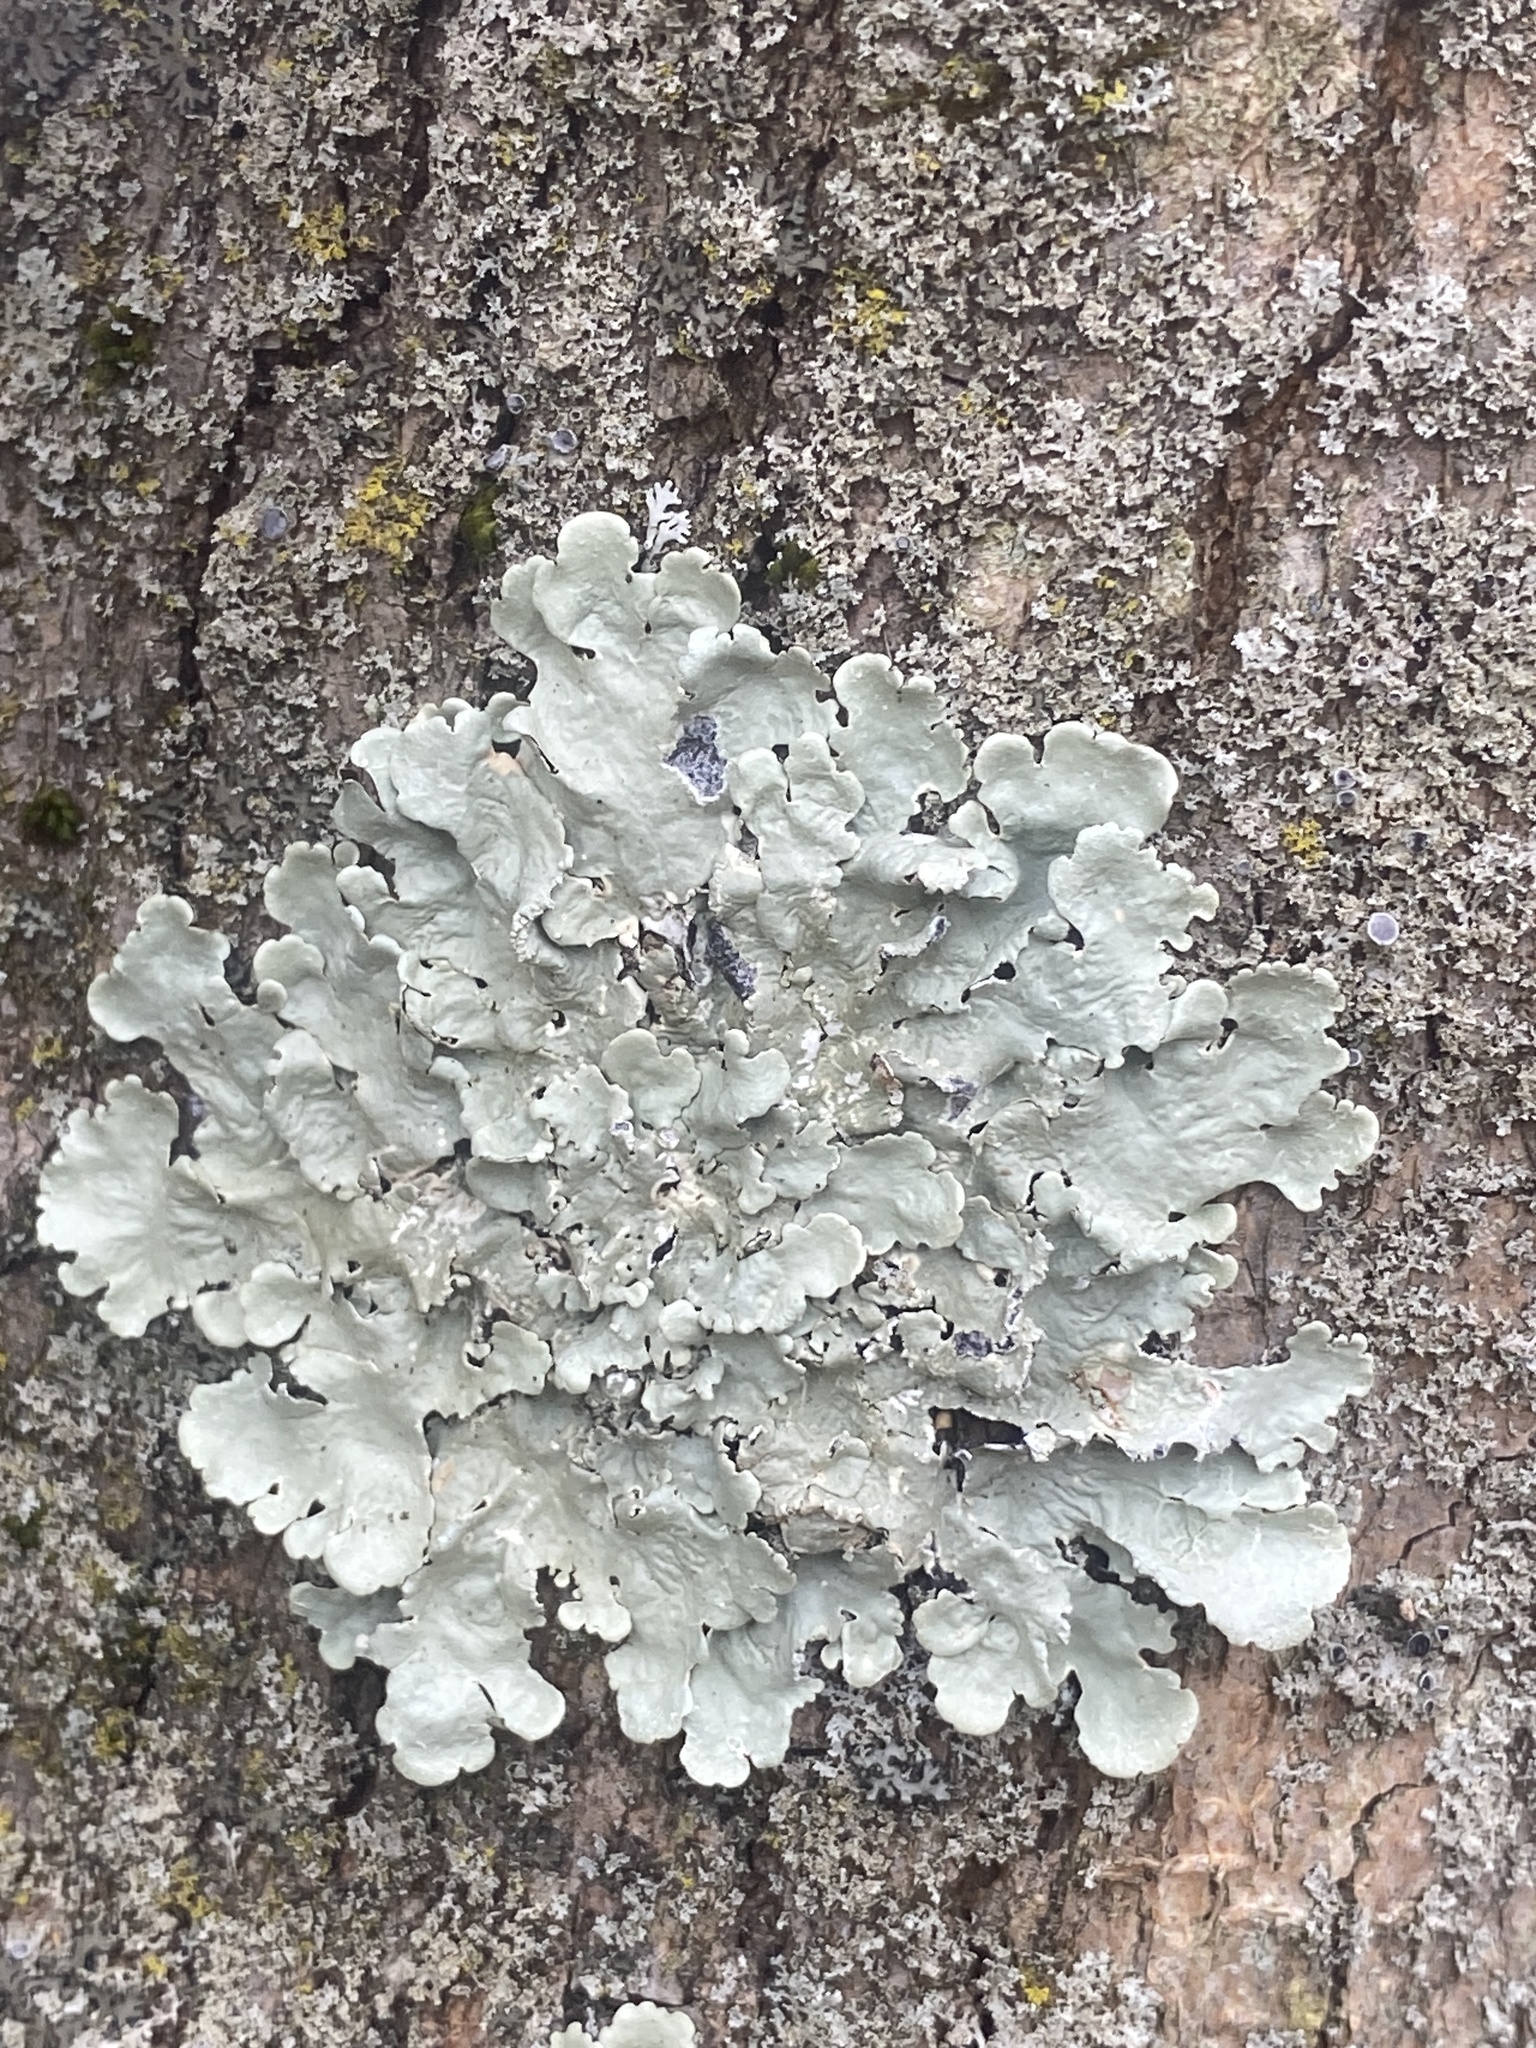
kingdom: Fungi
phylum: Ascomycota
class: Lecanoromycetes
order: Lecanorales
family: Parmeliaceae
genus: Flavoparmelia
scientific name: Flavoparmelia caperata
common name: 40-mile per hour lichen
